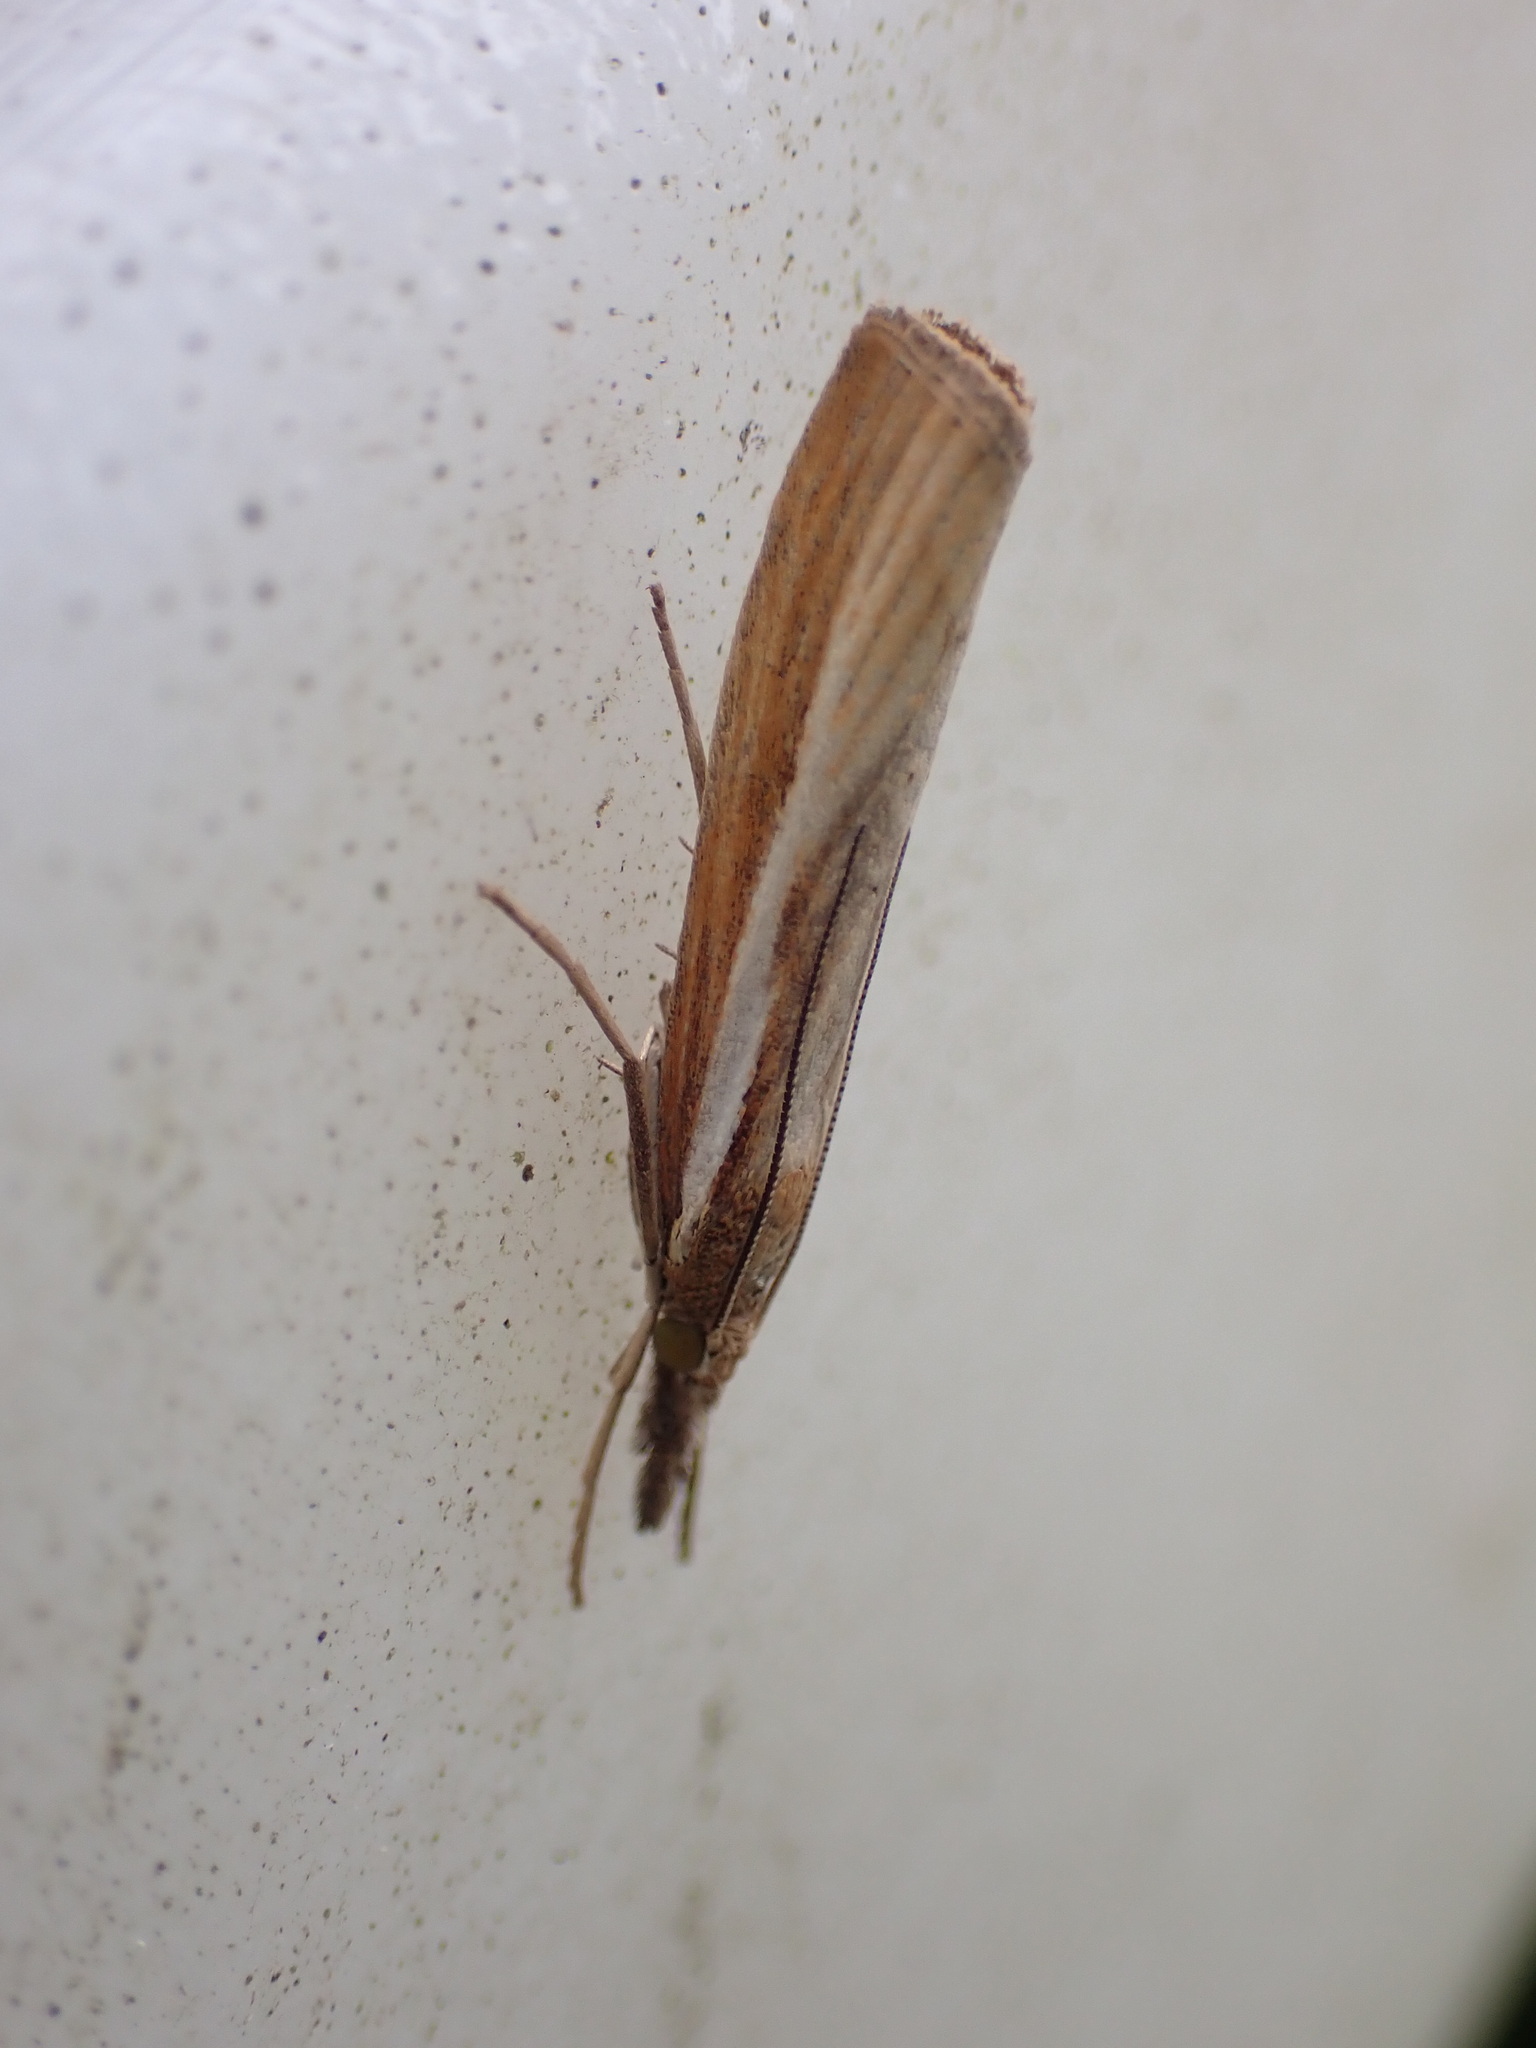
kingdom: Animalia
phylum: Arthropoda
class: Insecta
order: Lepidoptera
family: Crambidae
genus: Agriphila
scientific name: Agriphila tristellus
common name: Common grass-veneer
